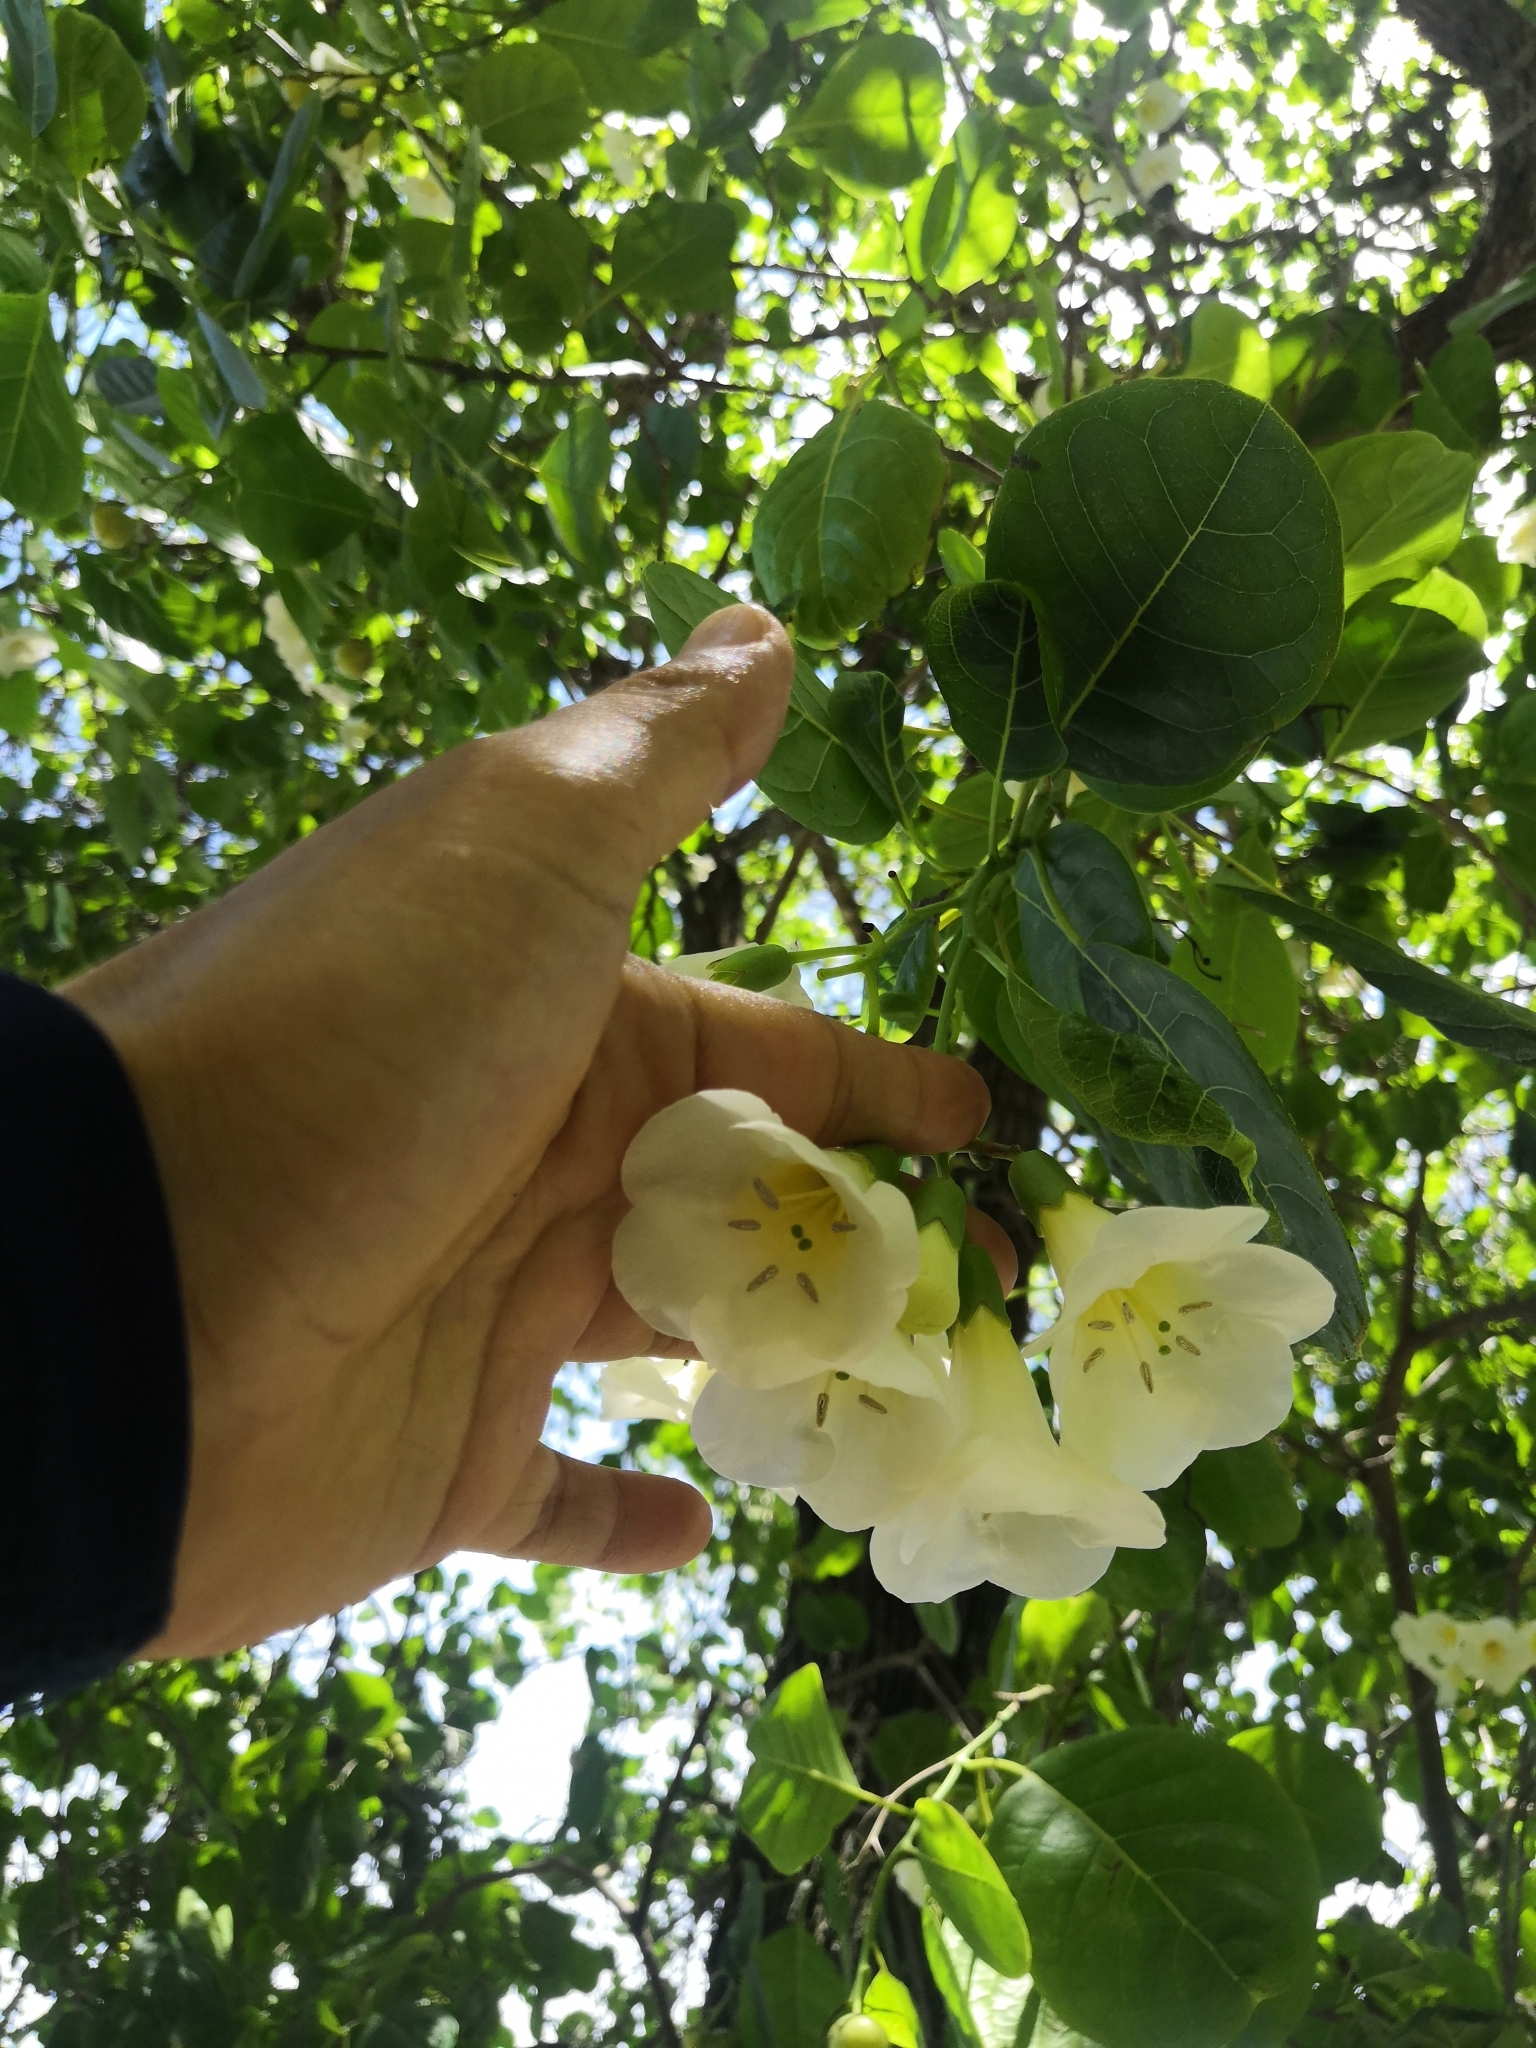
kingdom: Plantae
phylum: Tracheophyta
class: Magnoliopsida
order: Boraginales
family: Ehretiaceae
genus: Bourreria
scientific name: Bourreria superba
